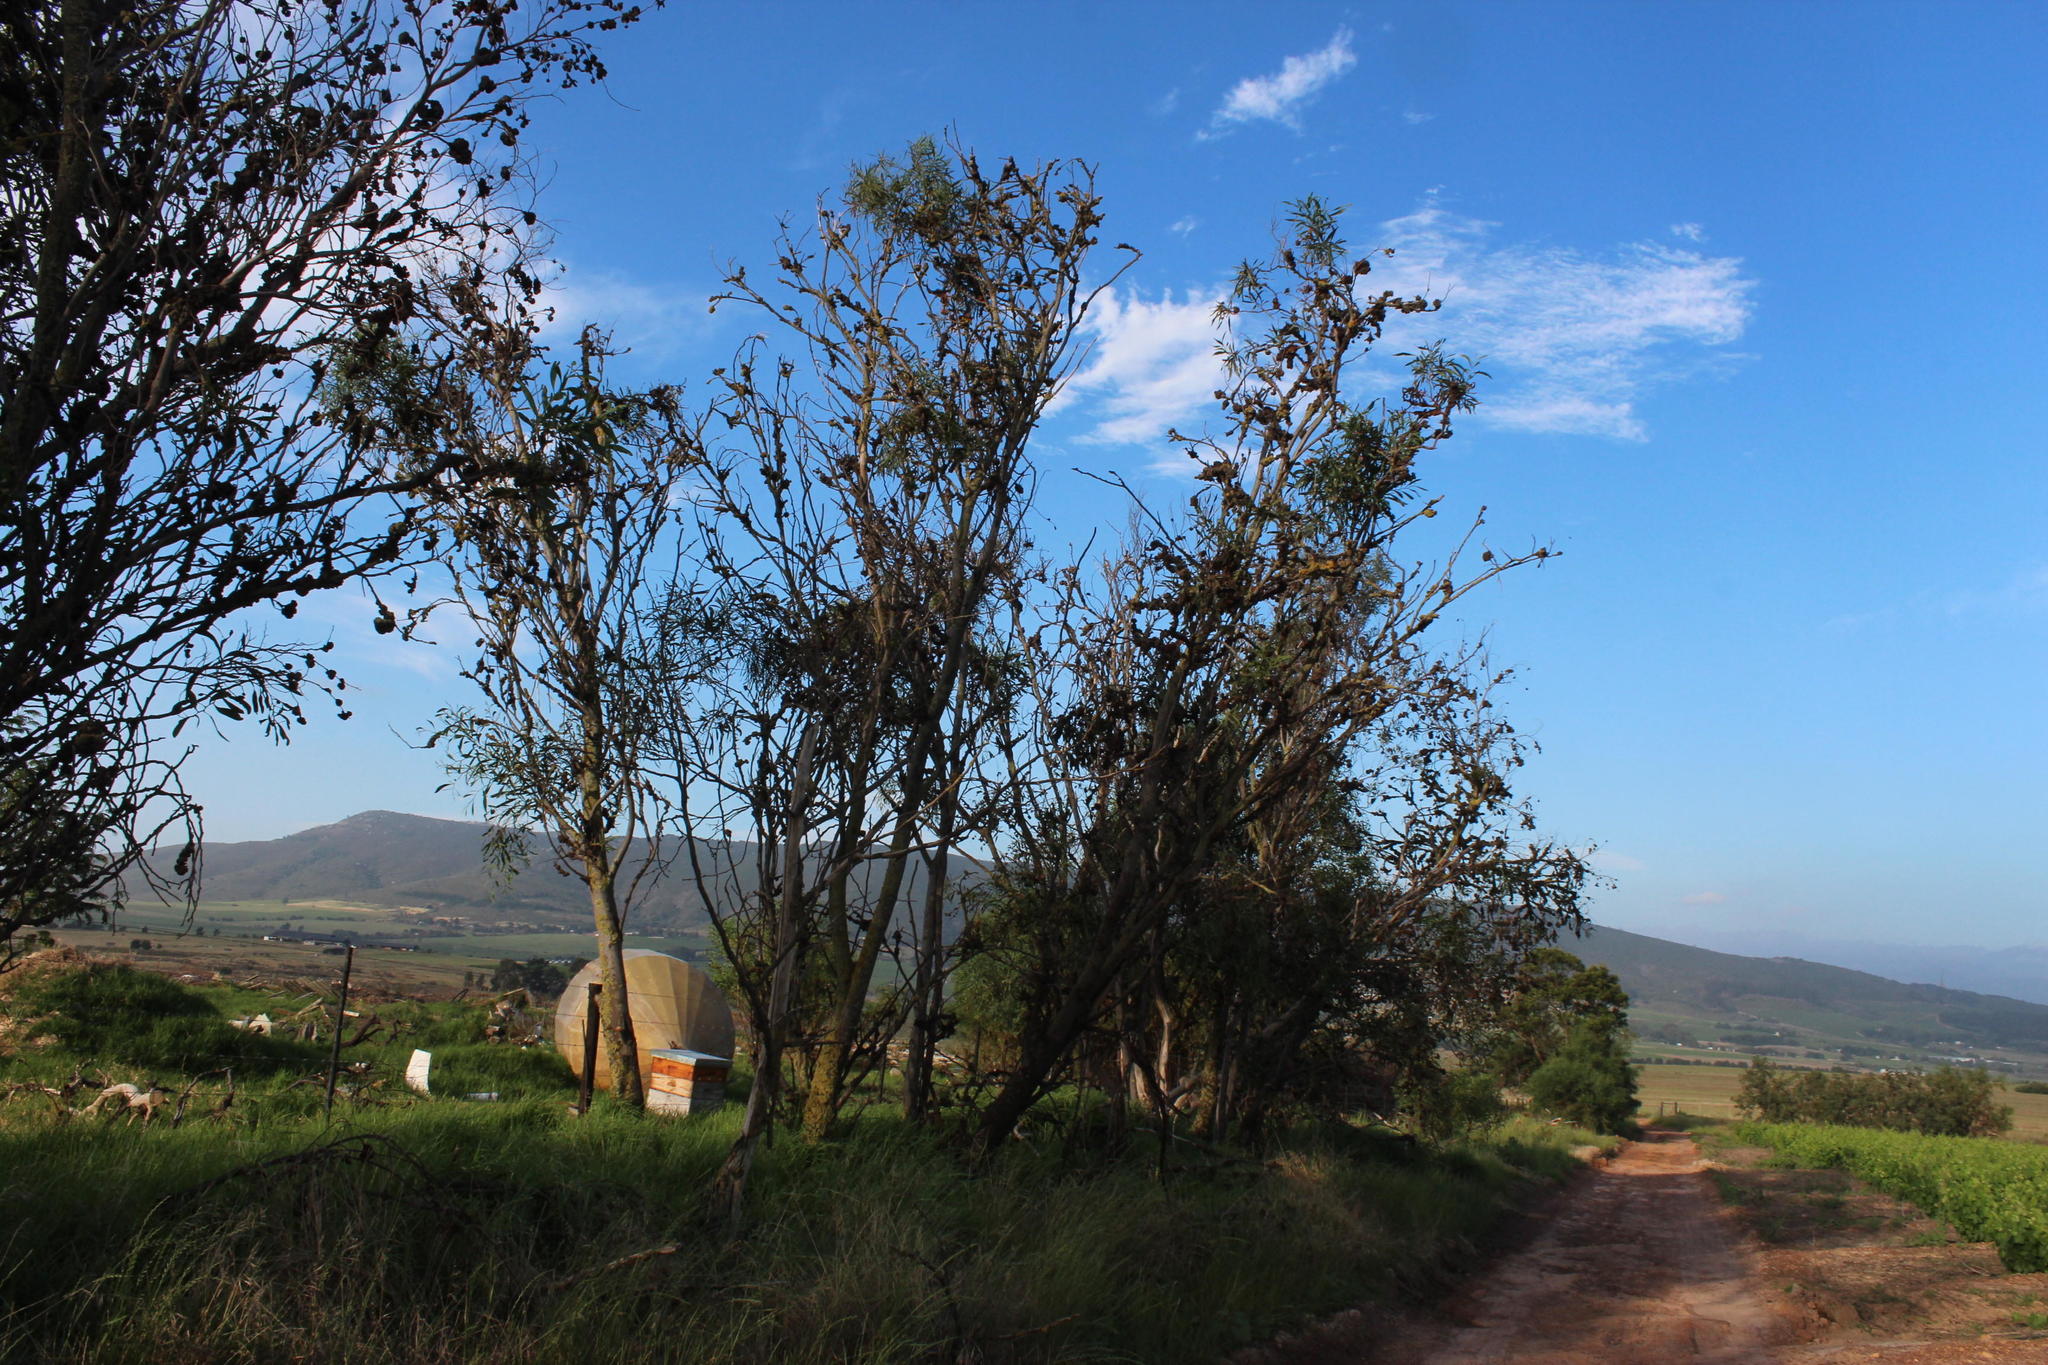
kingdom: Fungi
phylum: Basidiomycota
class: Pucciniomycetes
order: Pucciniales
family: Uromycladiaceae
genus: Uromycladium
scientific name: Uromycladium morrisii
